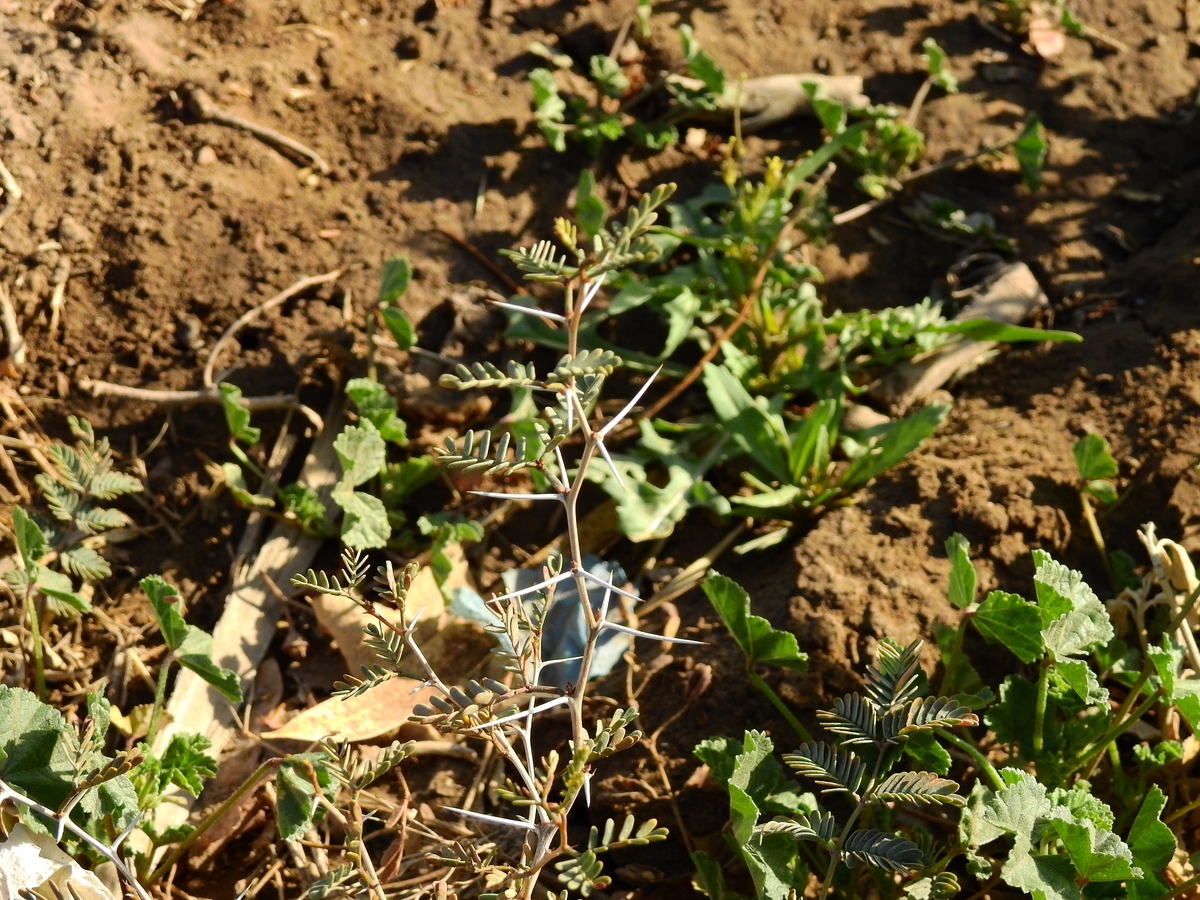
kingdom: Plantae
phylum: Tracheophyta
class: Magnoliopsida
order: Fabales
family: Fabaceae
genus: Prosopis
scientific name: Prosopis strombulifera
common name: Creeping mesquite
